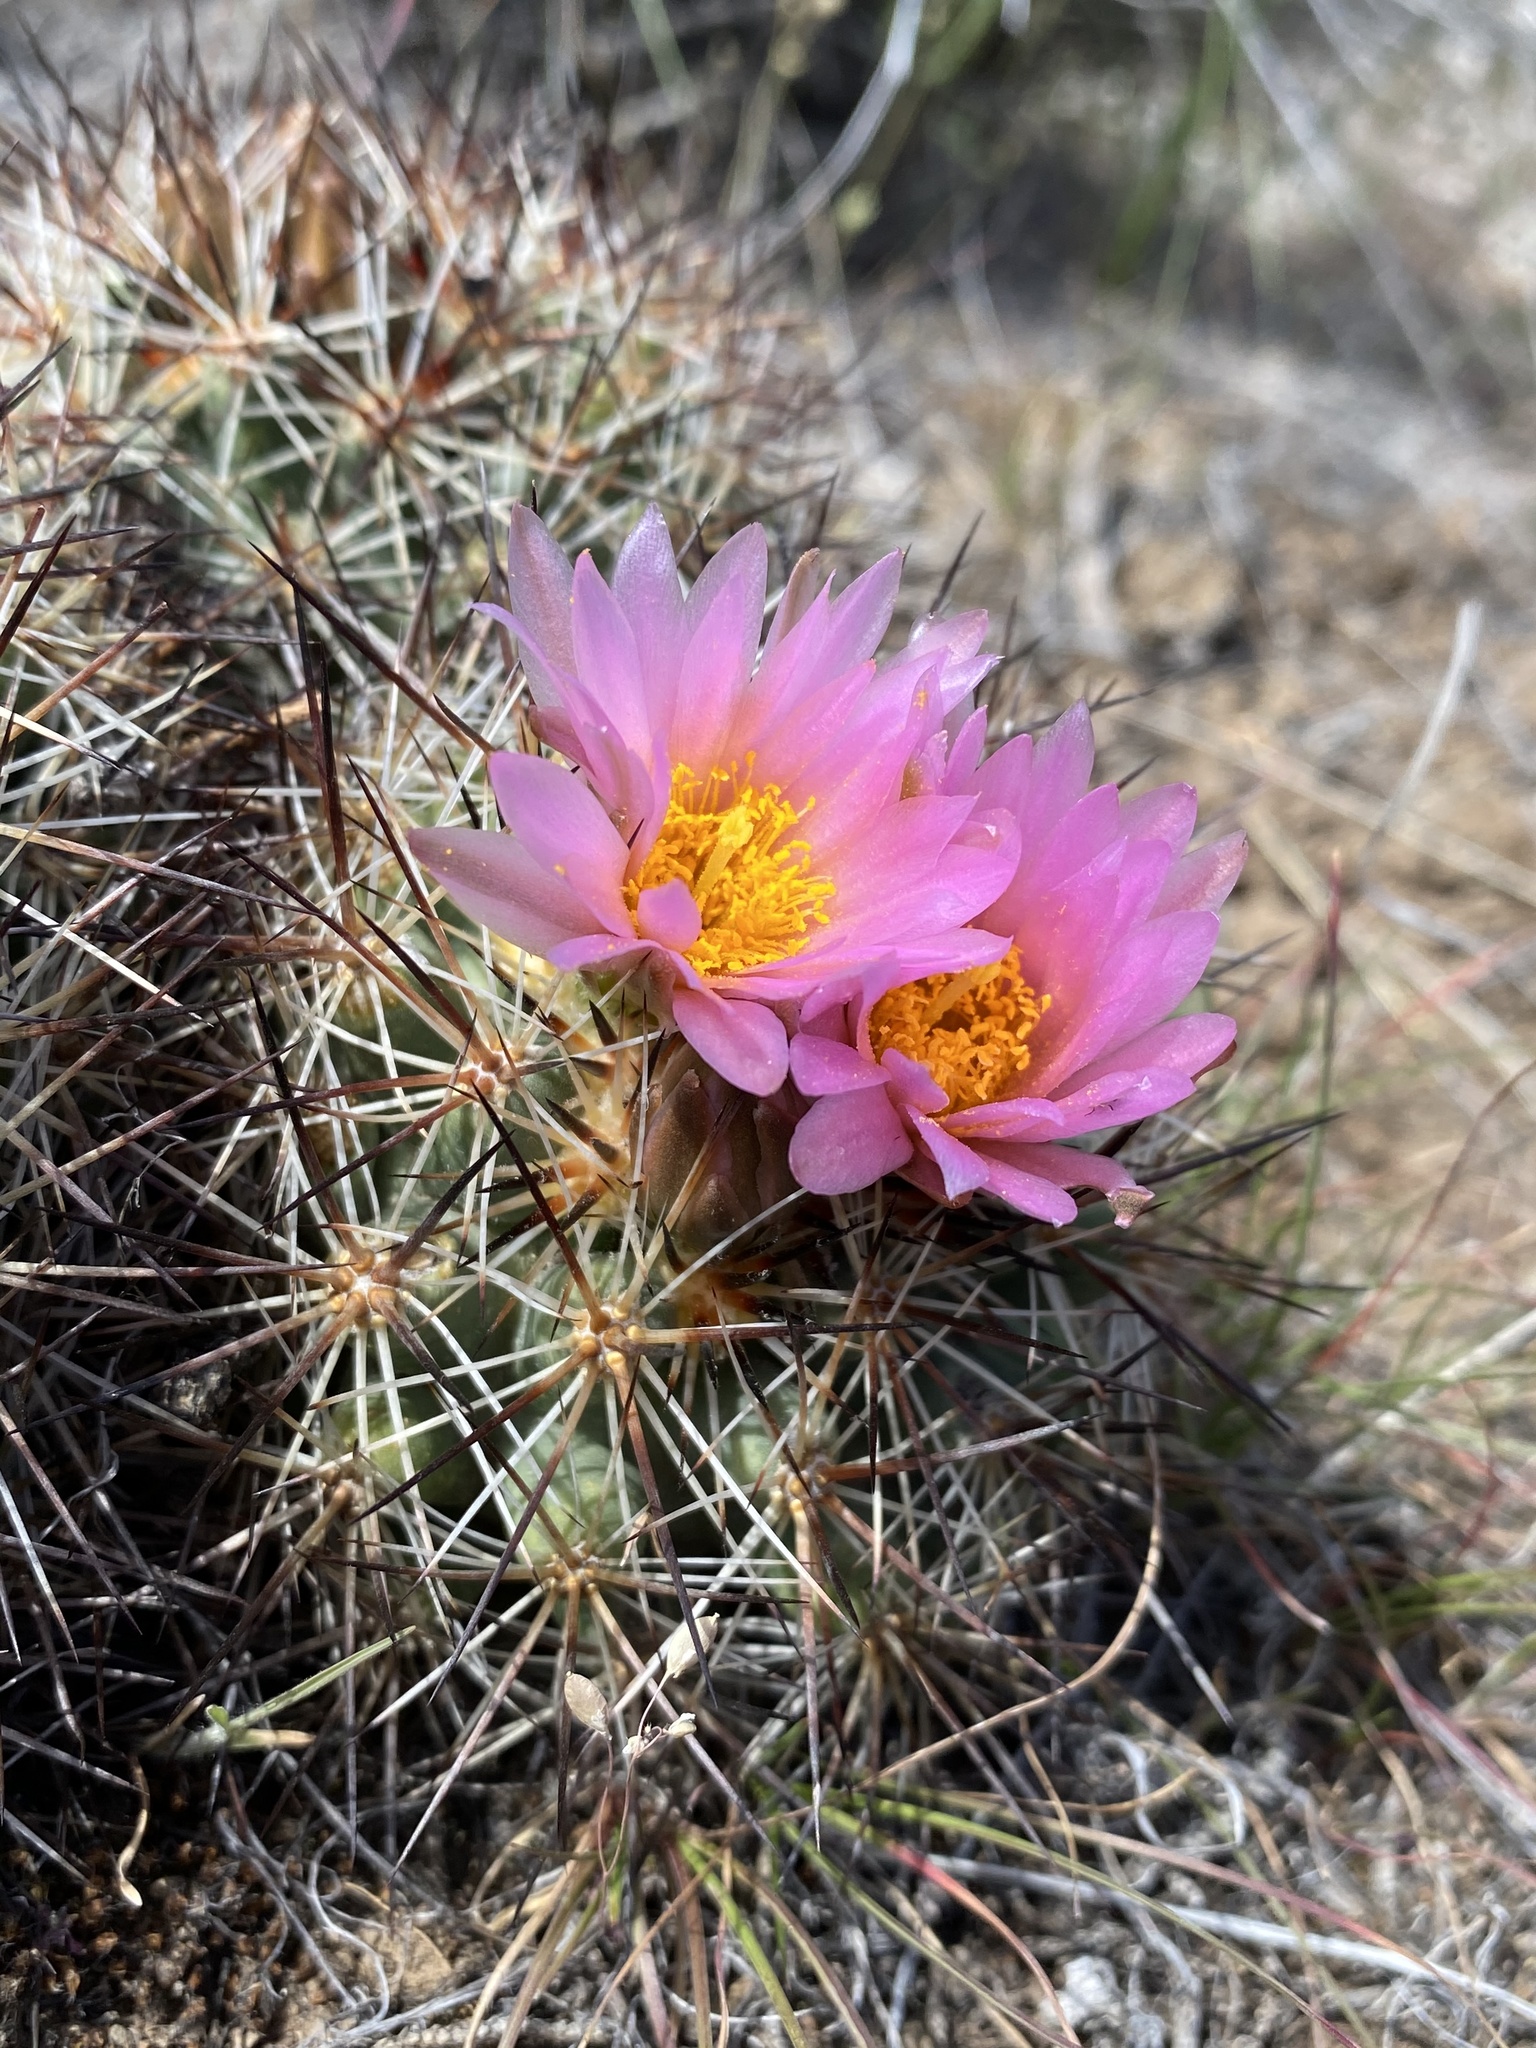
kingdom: Plantae
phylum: Tracheophyta
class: Magnoliopsida
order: Caryophyllales
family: Cactaceae
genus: Pediocactus
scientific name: Pediocactus nigrispinus
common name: Simpson's hedgehog cactus
